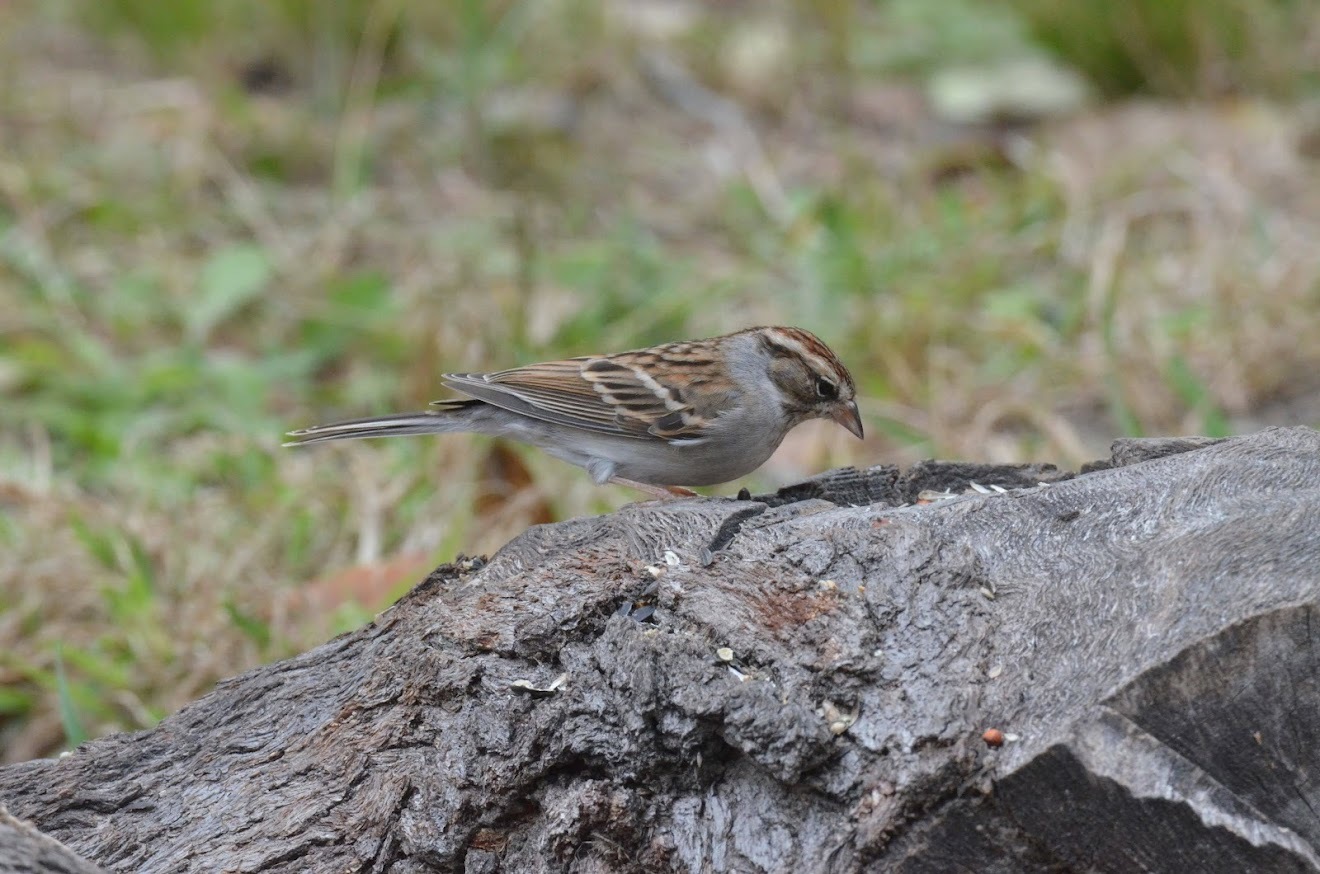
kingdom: Animalia
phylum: Chordata
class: Aves
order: Passeriformes
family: Passerellidae
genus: Spizella
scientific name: Spizella passerina
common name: Chipping sparrow
